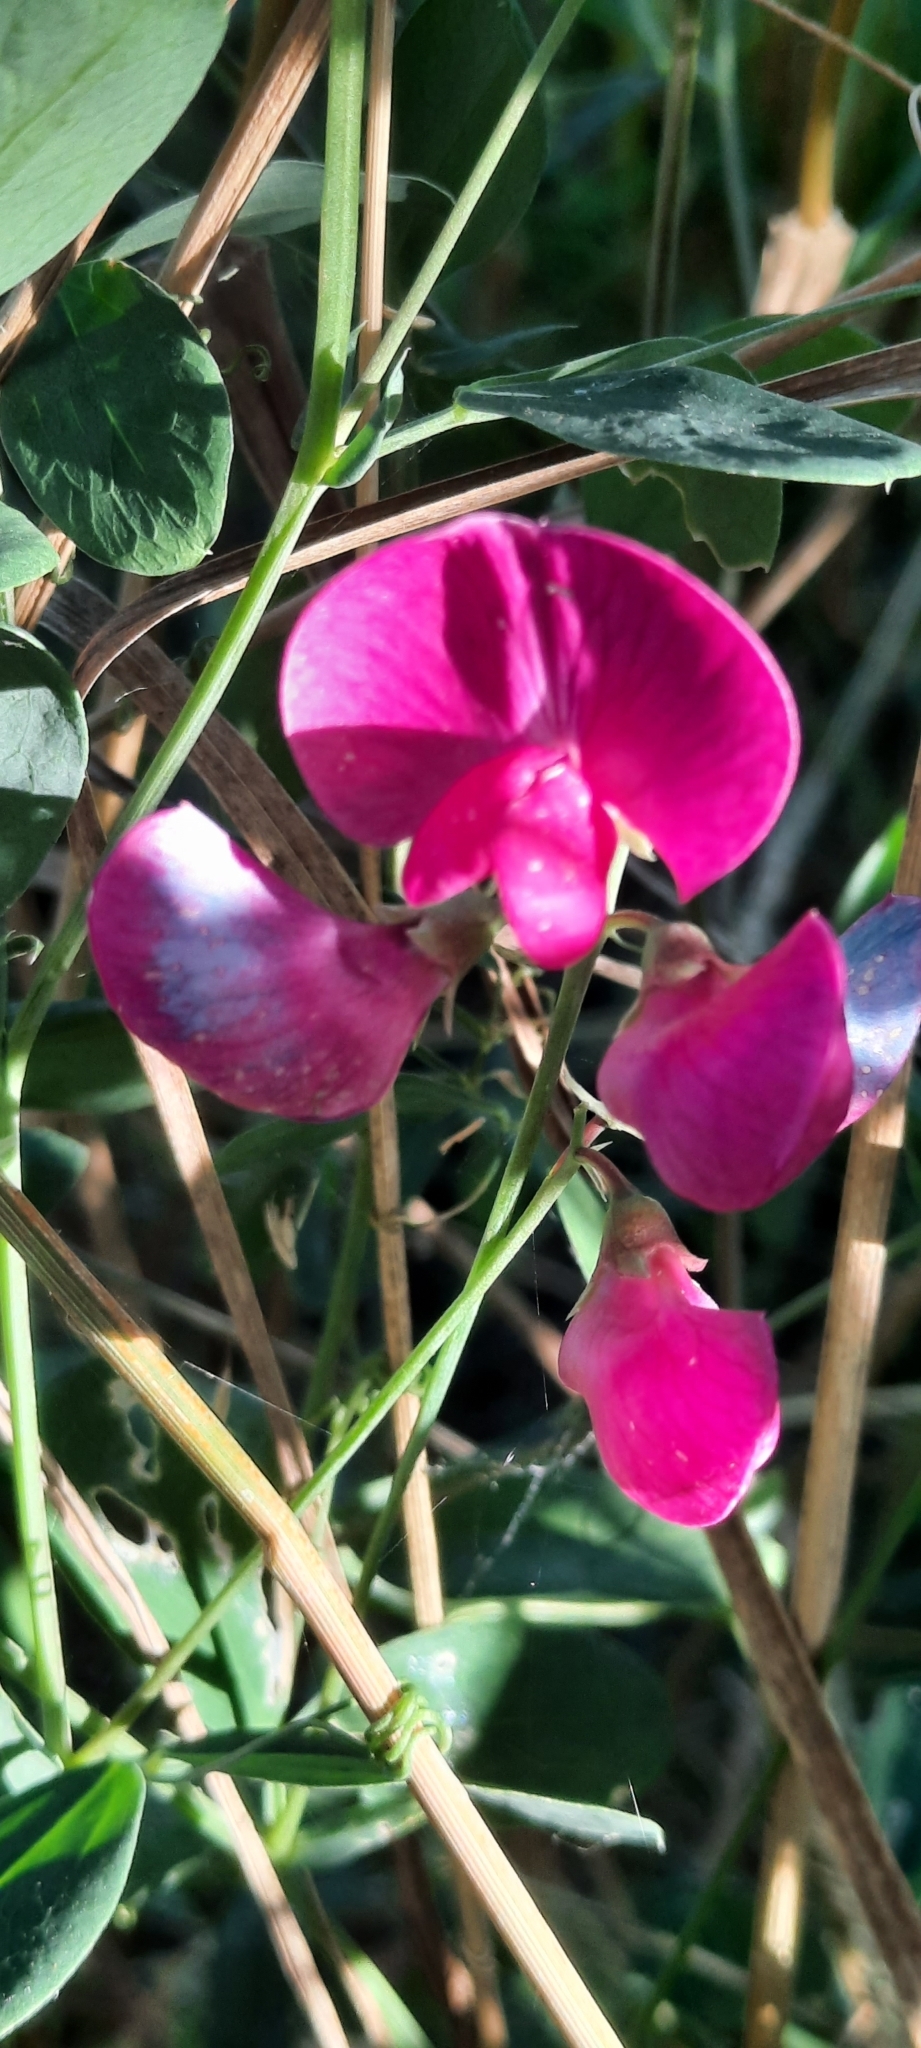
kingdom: Plantae
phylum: Tracheophyta
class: Magnoliopsida
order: Fabales
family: Fabaceae
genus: Lathyrus
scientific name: Lathyrus tuberosus
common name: Tuberous pea
